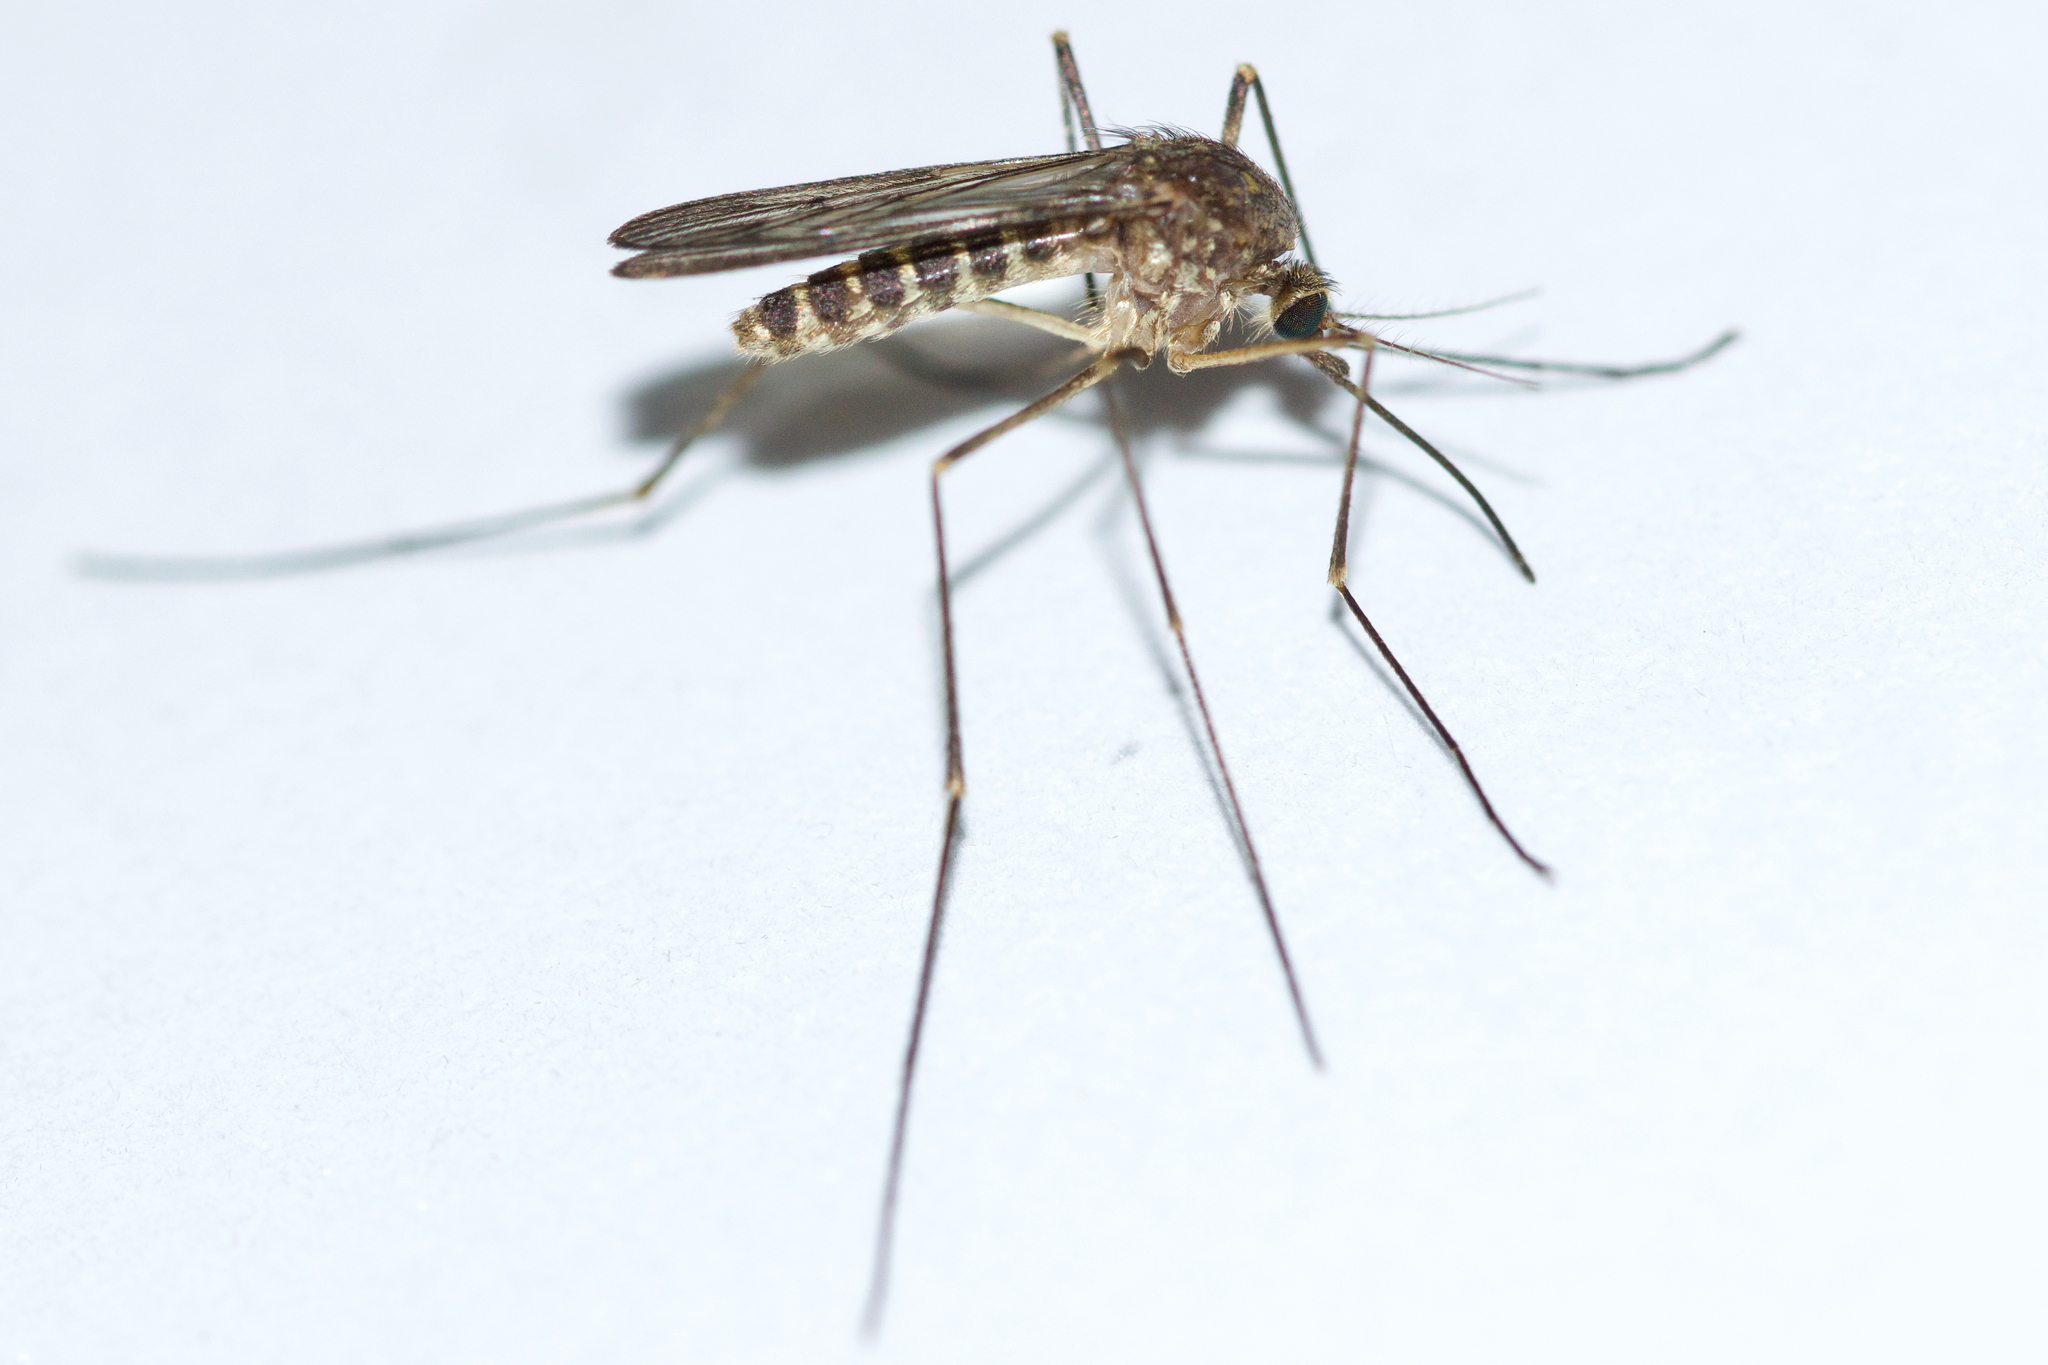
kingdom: Animalia
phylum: Arthropoda
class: Insecta
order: Diptera
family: Culicidae
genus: Culiseta
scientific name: Culiseta impatiens
